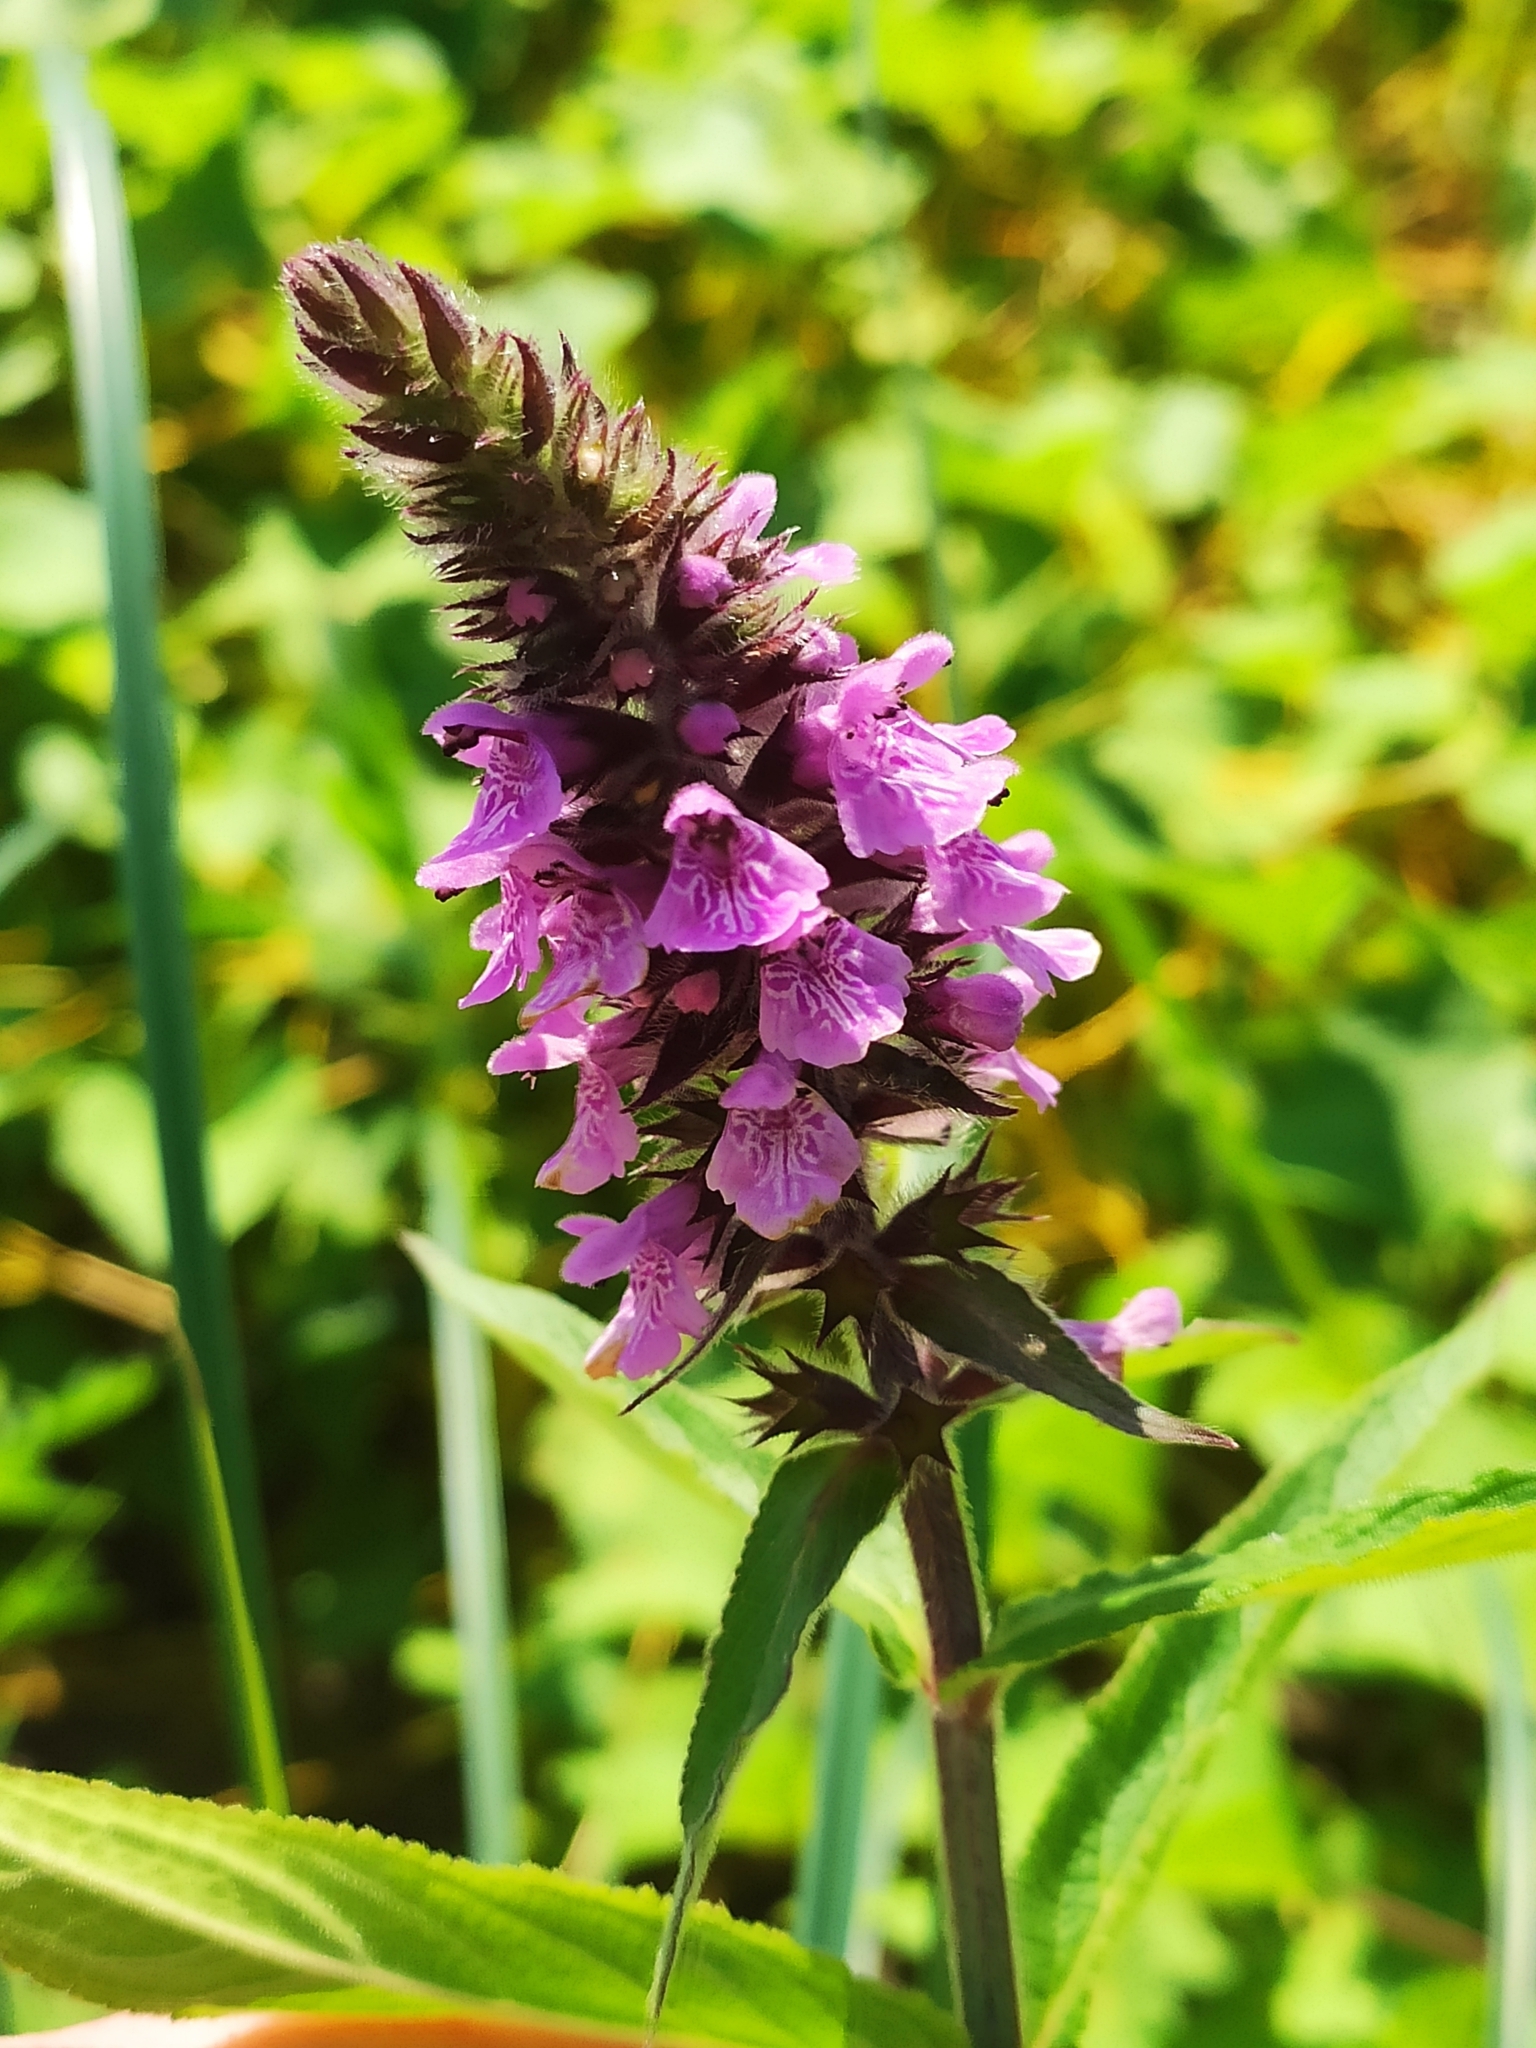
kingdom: Plantae
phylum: Tracheophyta
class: Magnoliopsida
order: Lamiales
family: Lamiaceae
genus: Stachys
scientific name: Stachys palustris
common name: Marsh woundwort
